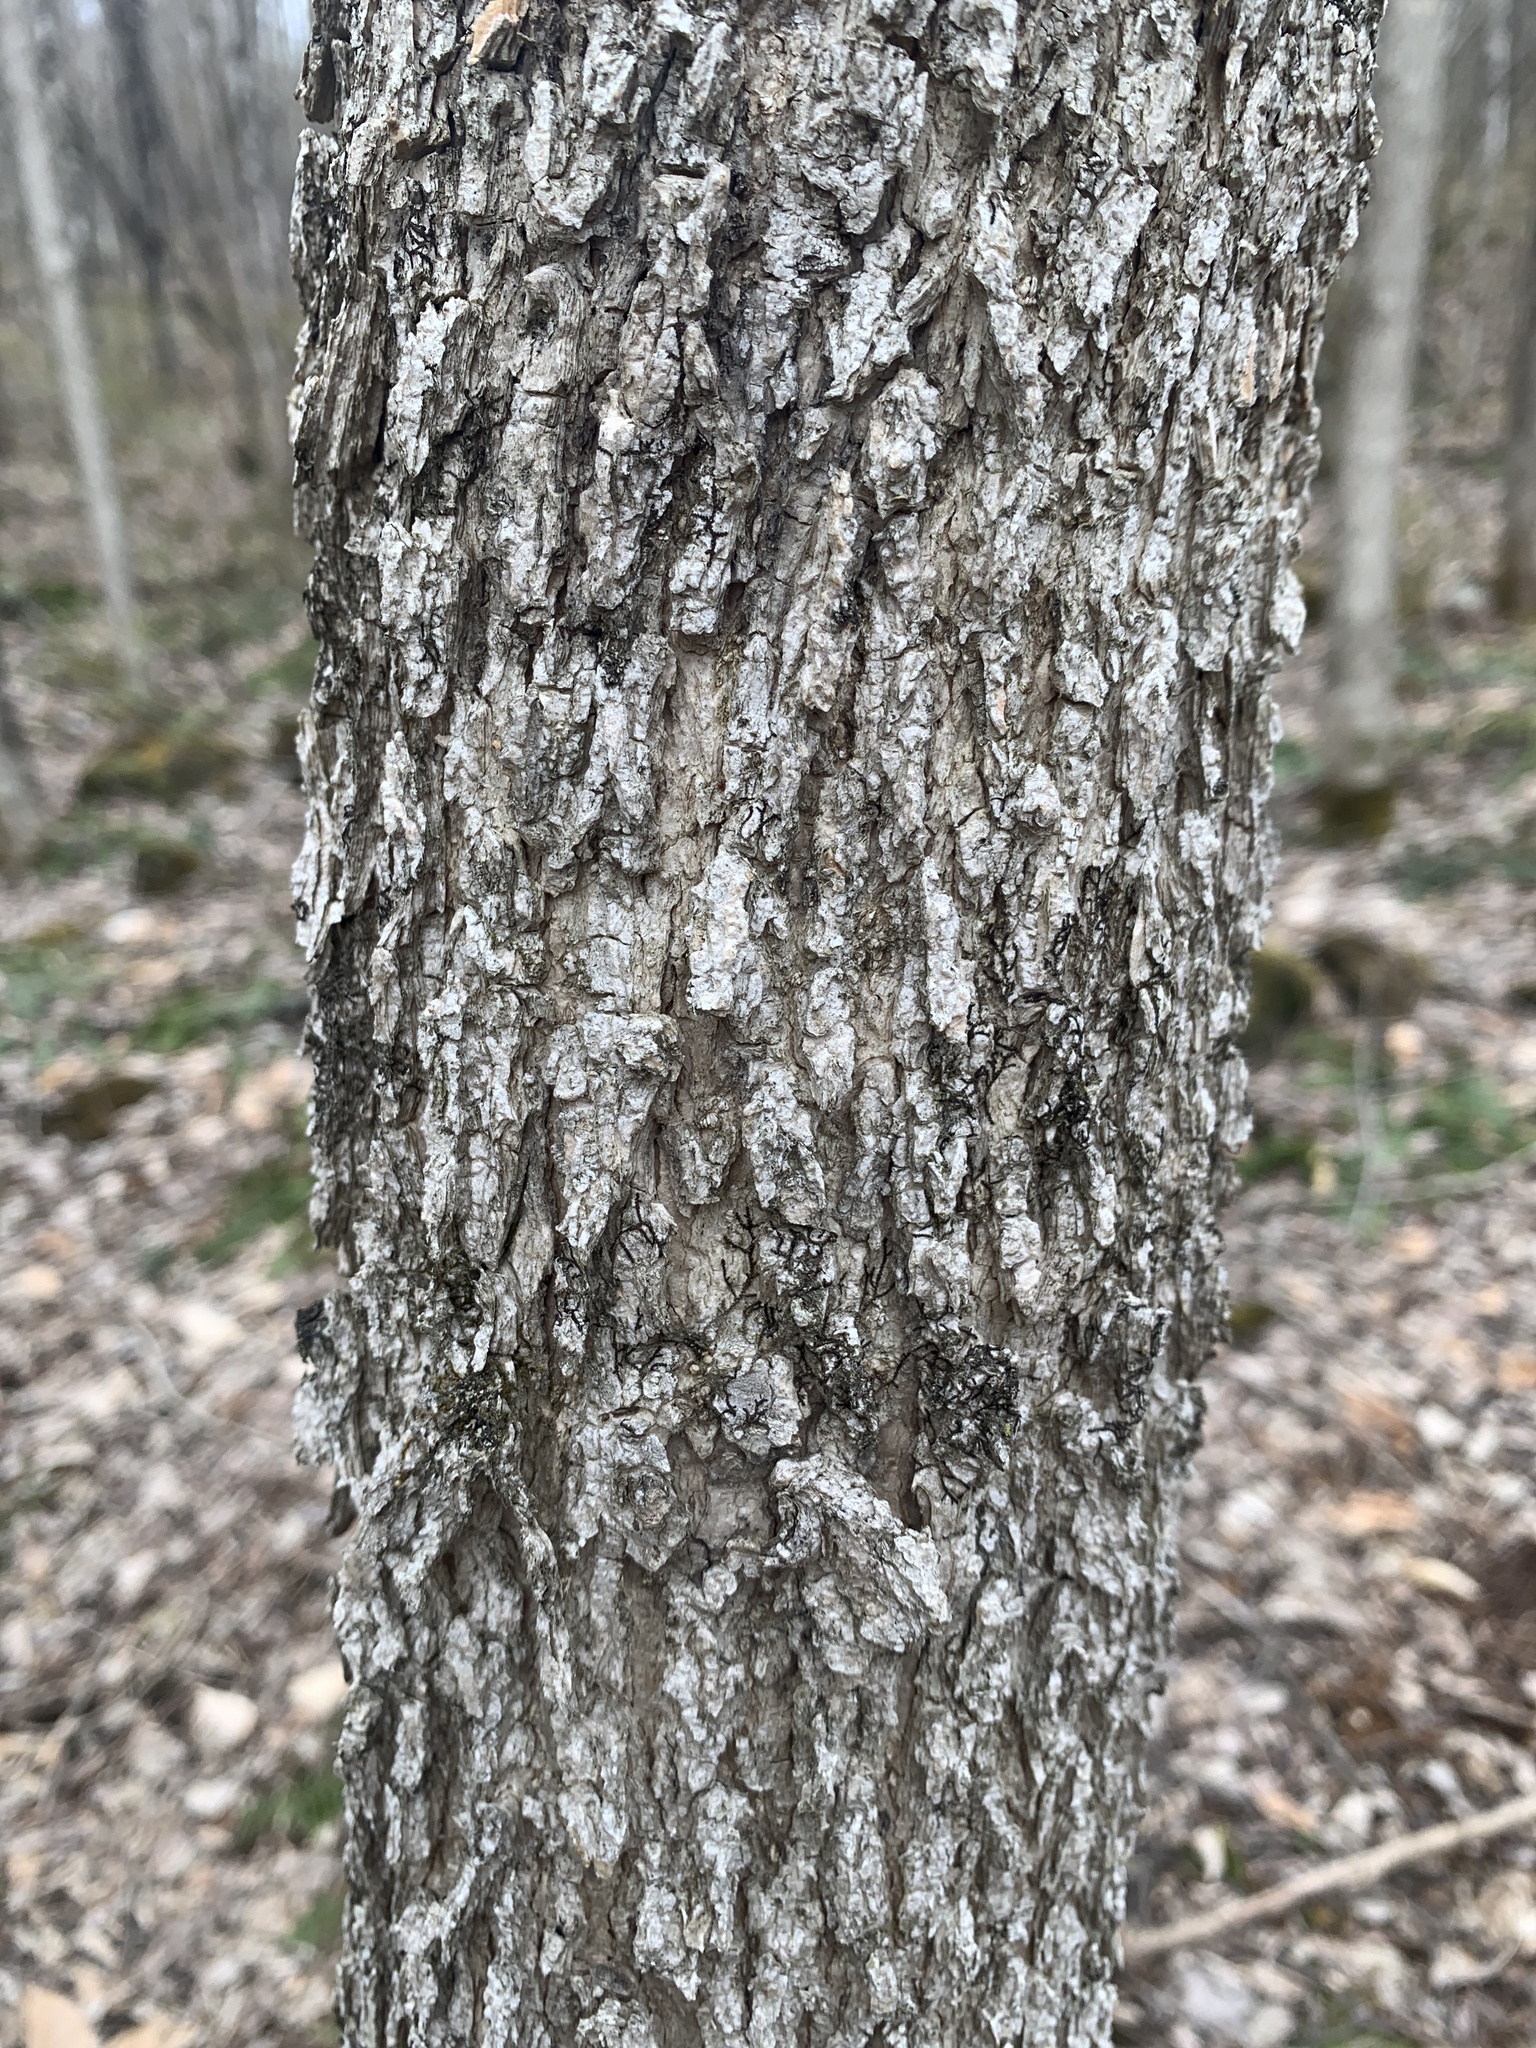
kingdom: Plantae
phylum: Tracheophyta
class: Magnoliopsida
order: Lamiales
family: Oleaceae
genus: Fraxinus
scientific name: Fraxinus nigra
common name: Black ash
